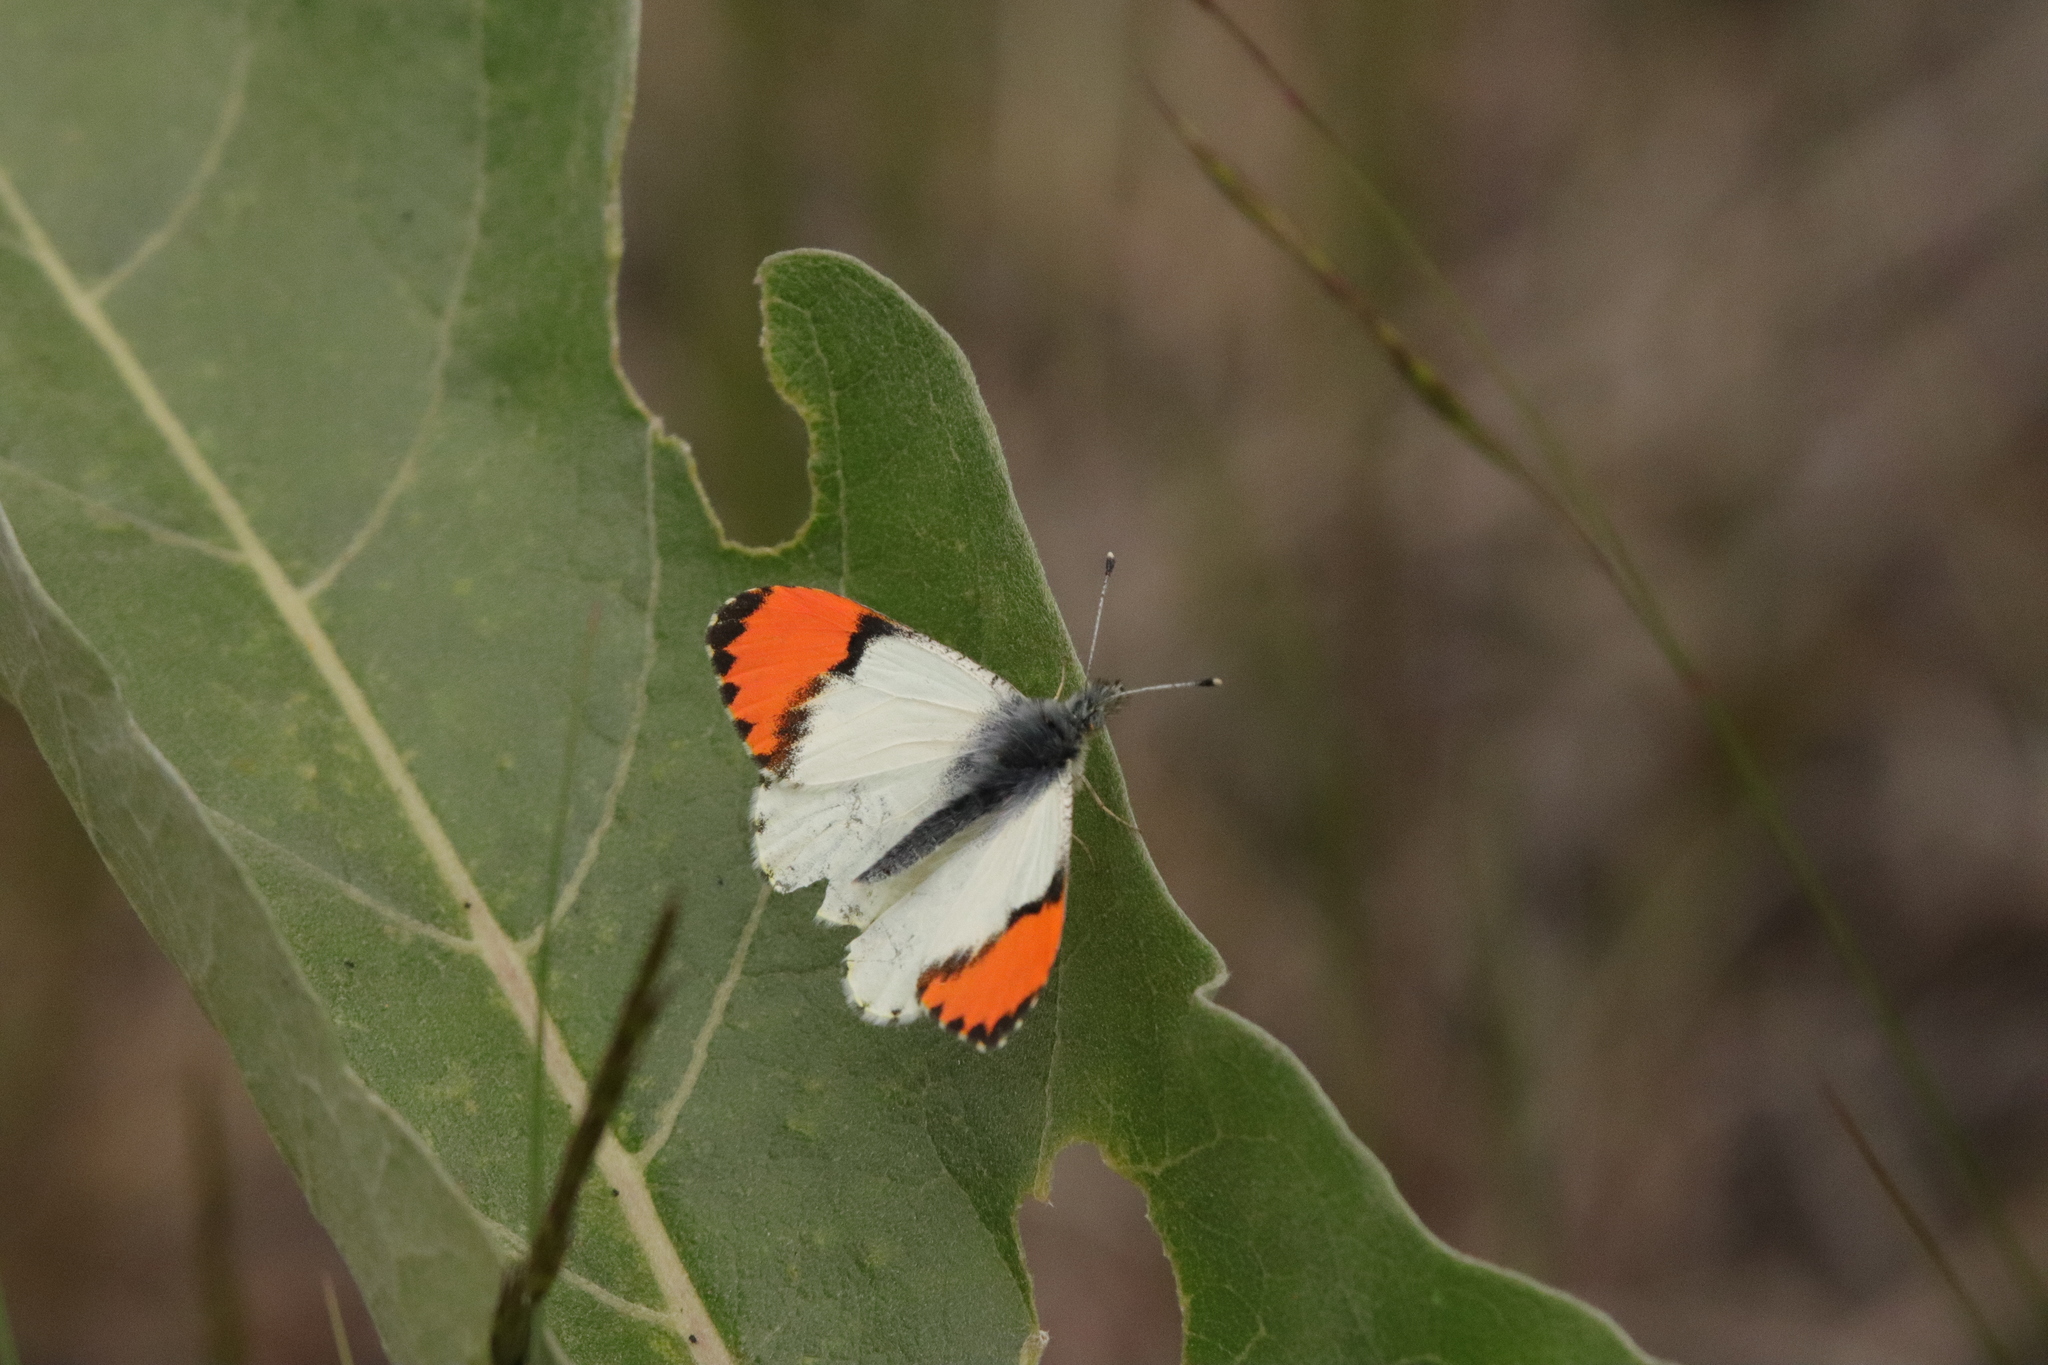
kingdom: Animalia
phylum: Arthropoda
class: Insecta
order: Lepidoptera
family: Pieridae
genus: Anthocharis
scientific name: Anthocharis julia
